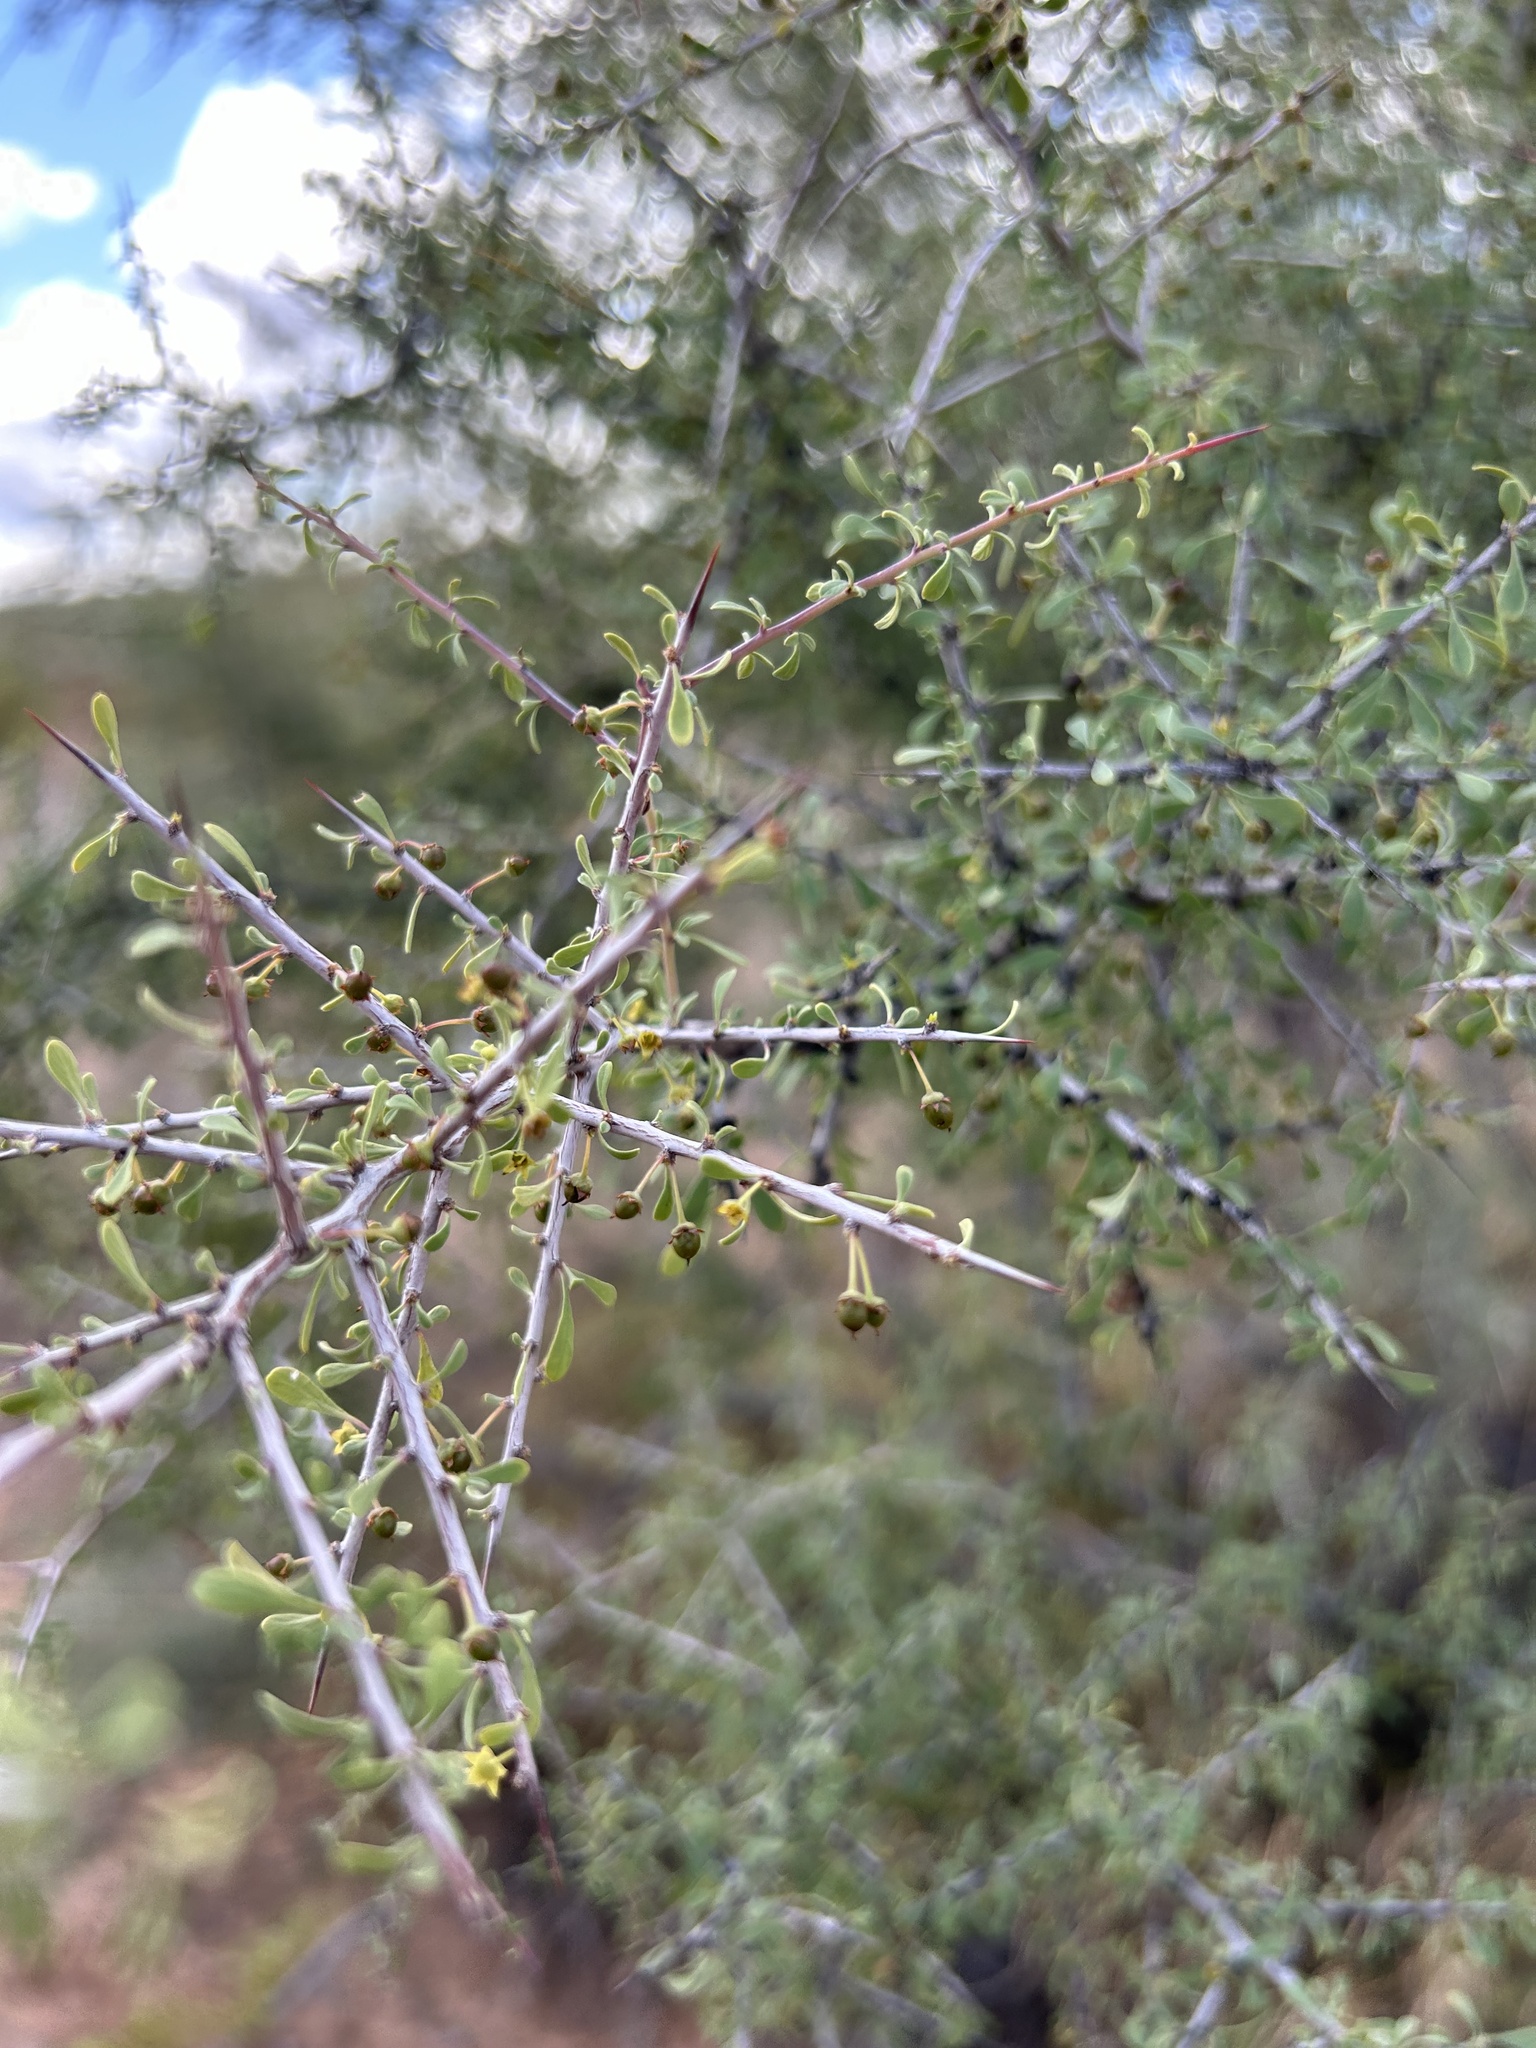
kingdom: Plantae
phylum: Tracheophyta
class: Magnoliopsida
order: Rosales
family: Rhamnaceae
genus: Condalia
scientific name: Condalia globosa
